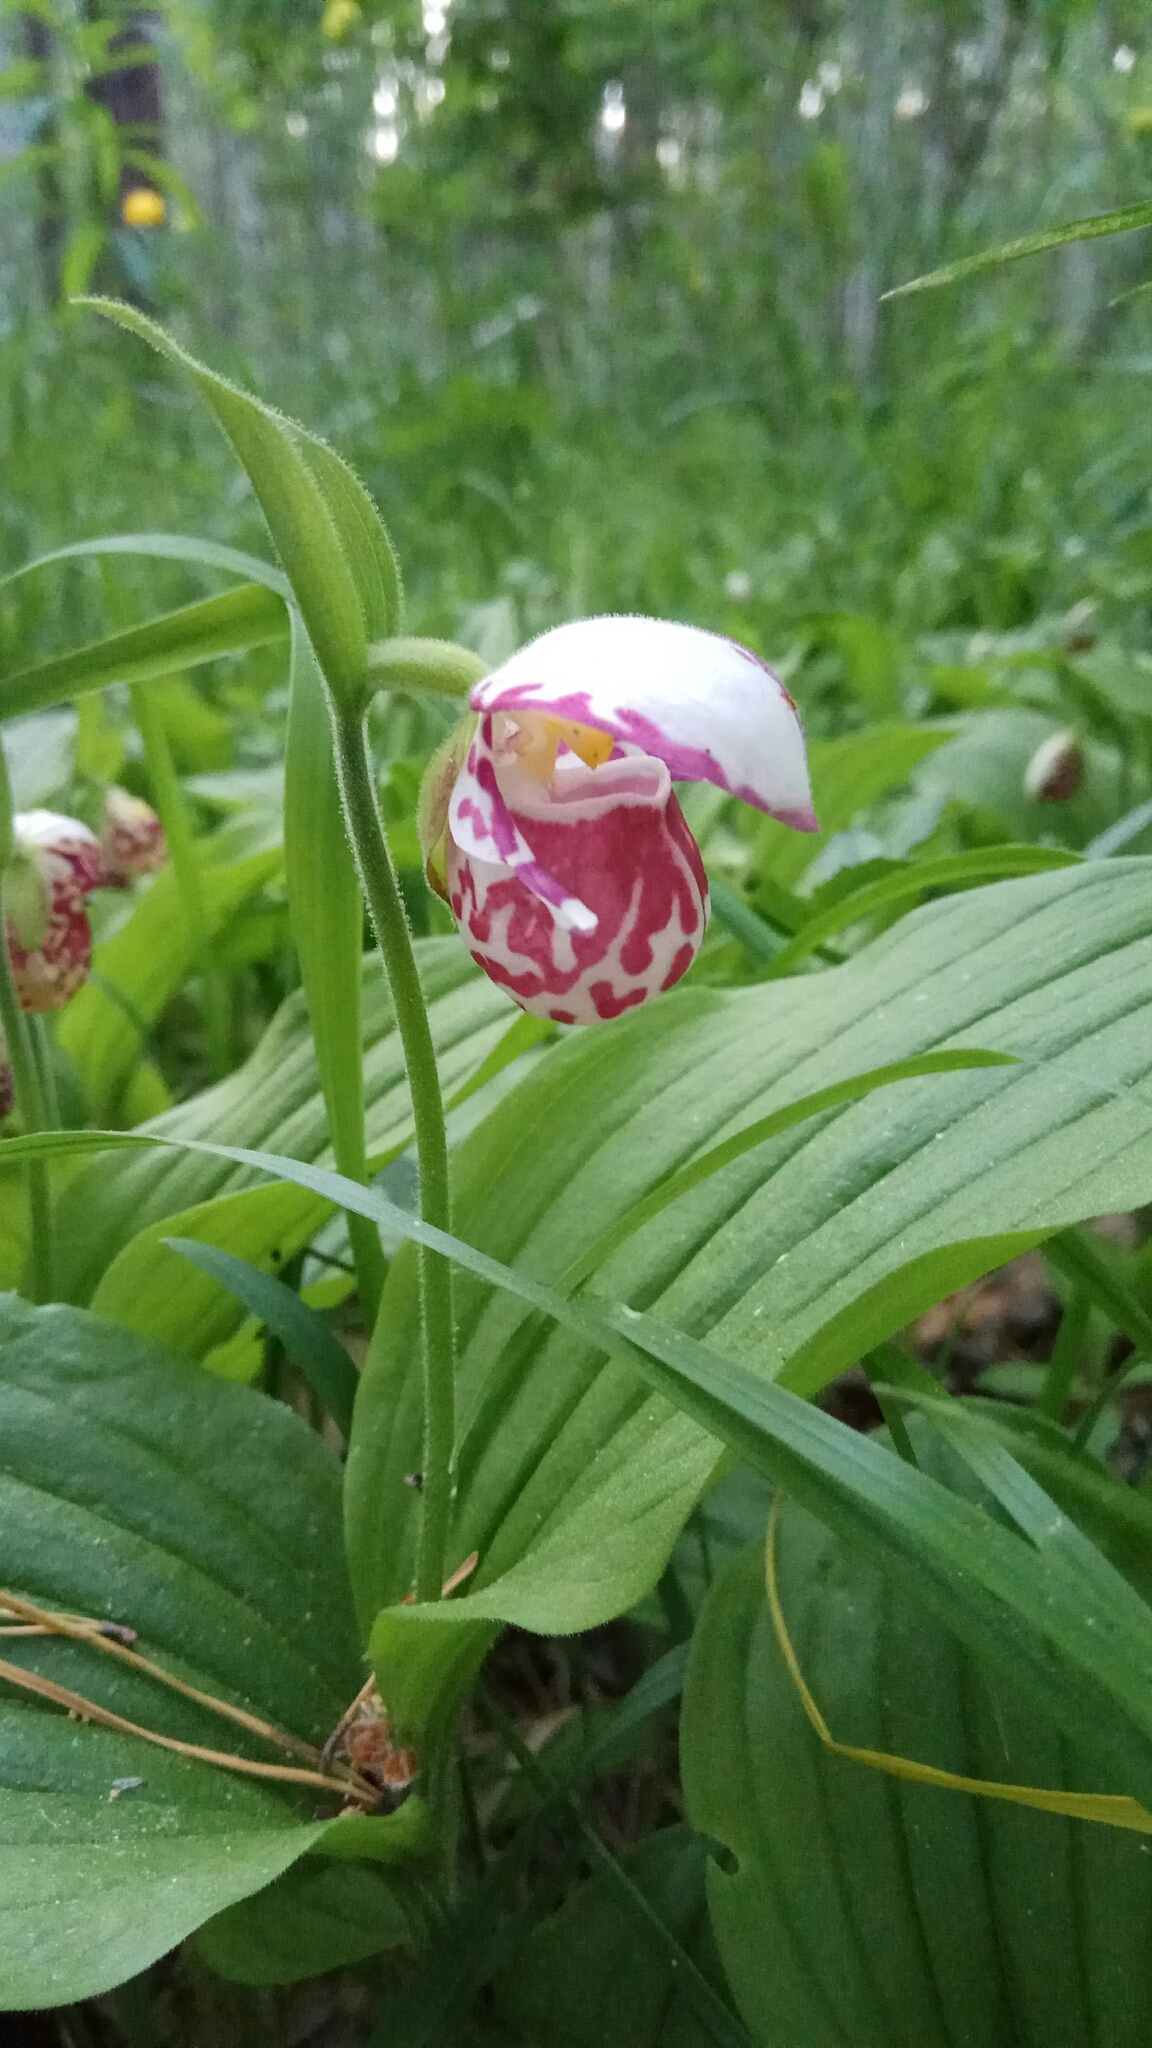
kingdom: Plantae
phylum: Tracheophyta
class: Liliopsida
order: Asparagales
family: Orchidaceae
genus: Cypripedium
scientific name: Cypripedium guttatum
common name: Pink lady slipper
